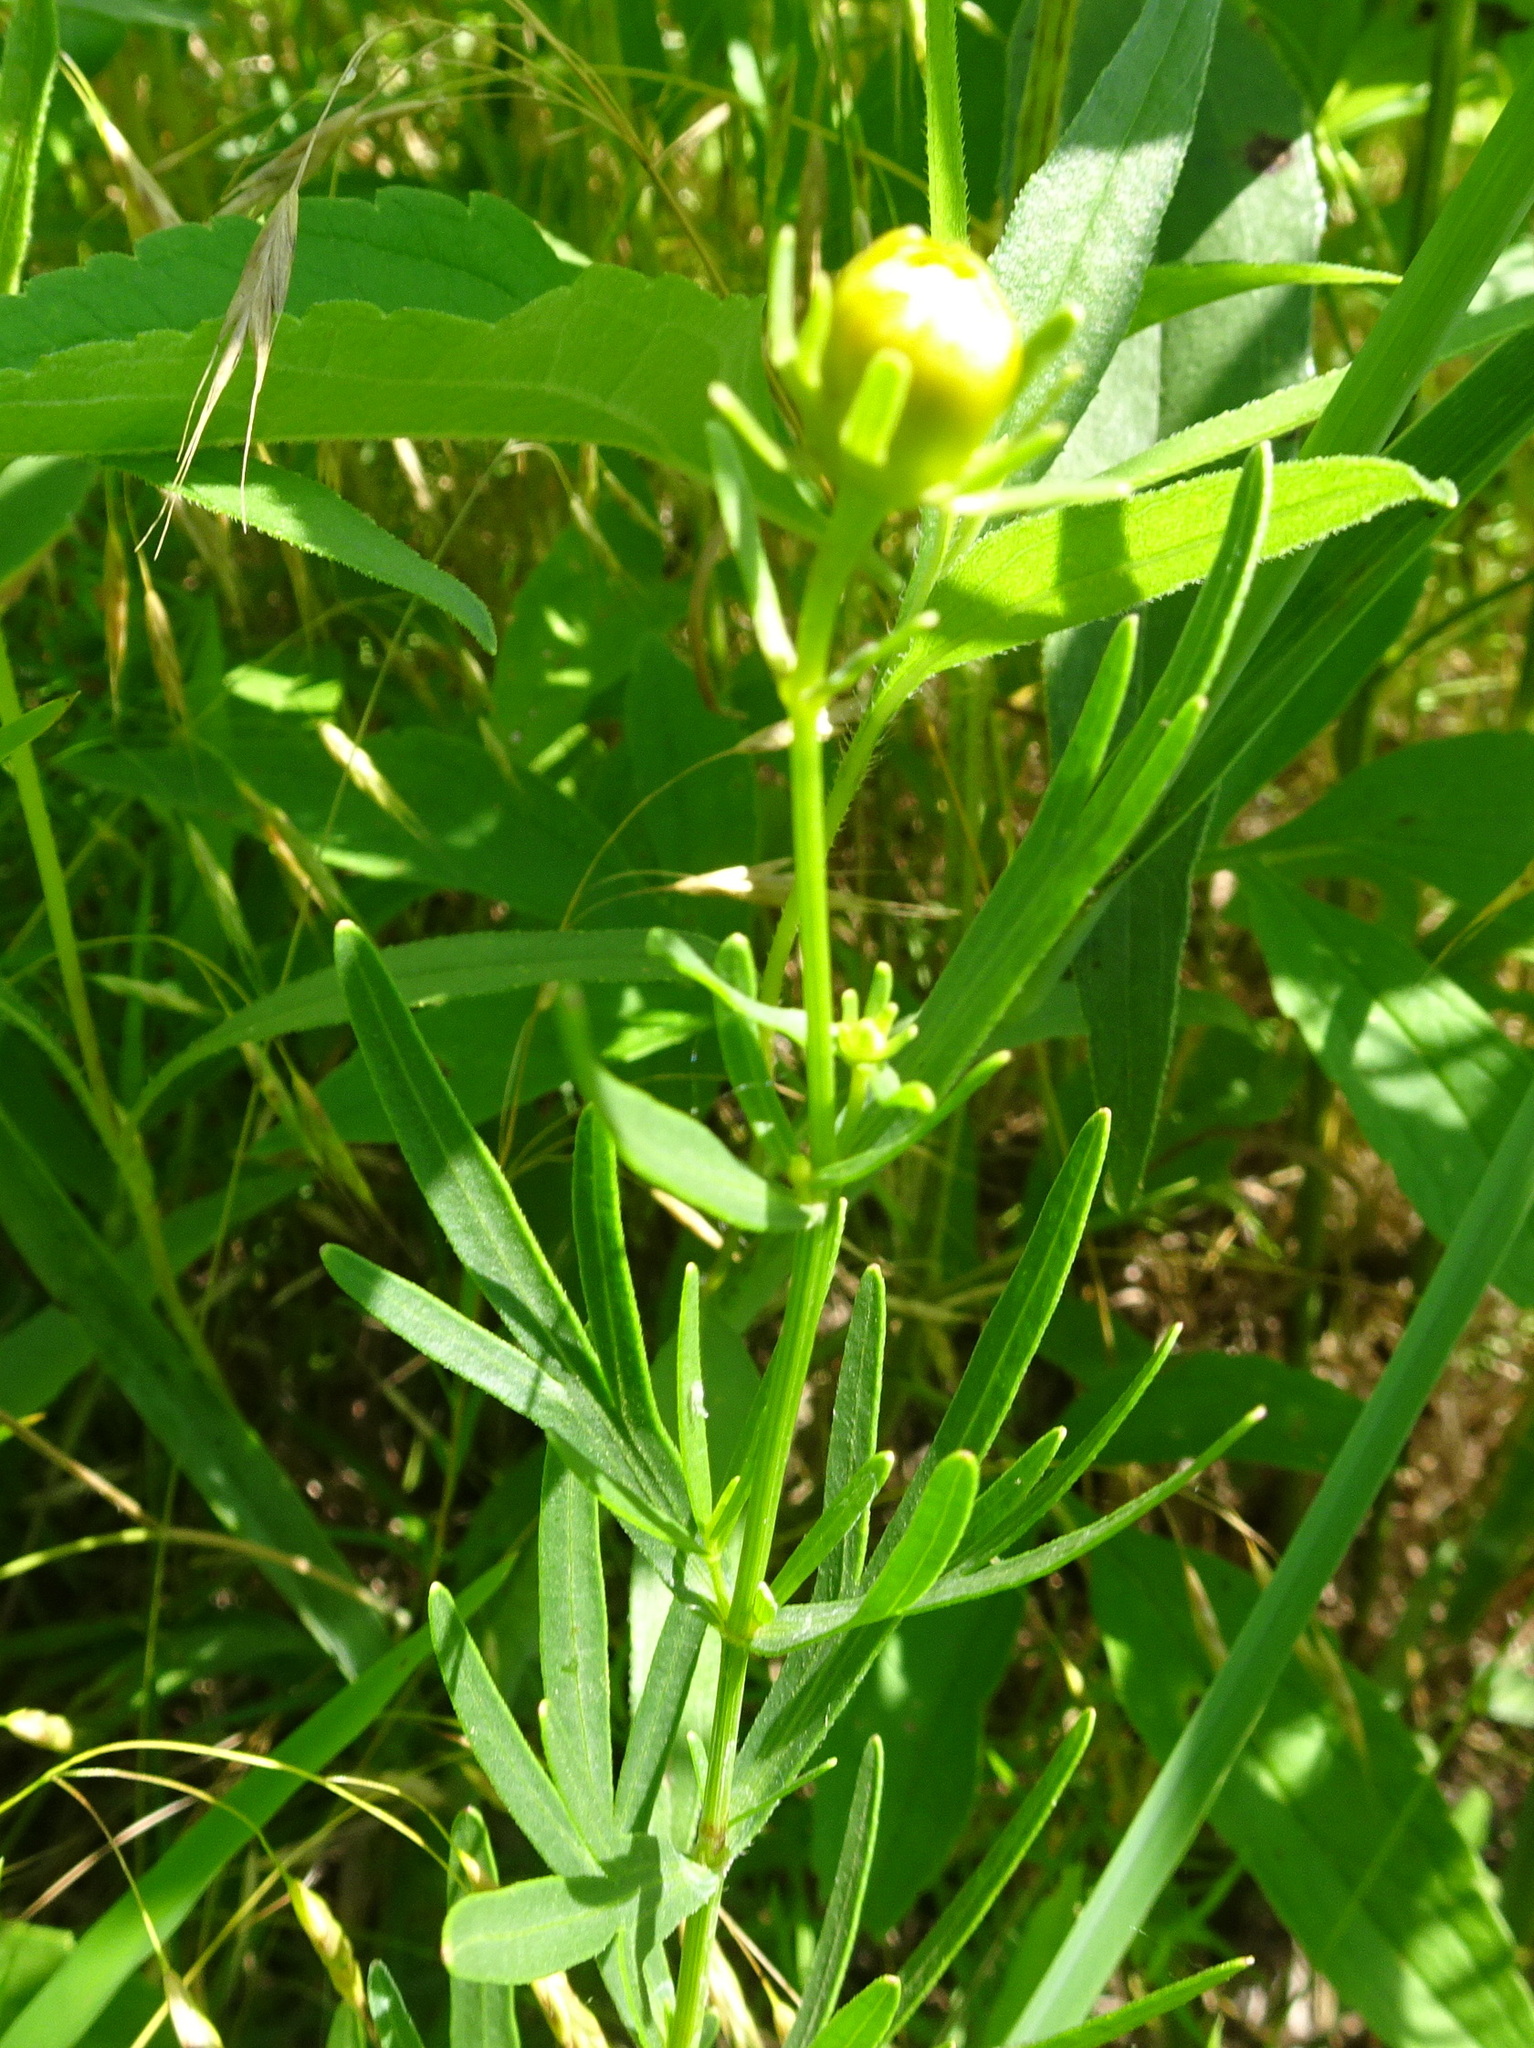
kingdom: Plantae
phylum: Tracheophyta
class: Magnoliopsida
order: Asterales
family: Asteraceae
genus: Coreopsis
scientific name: Coreopsis palmata
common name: Prairie coreopsis
